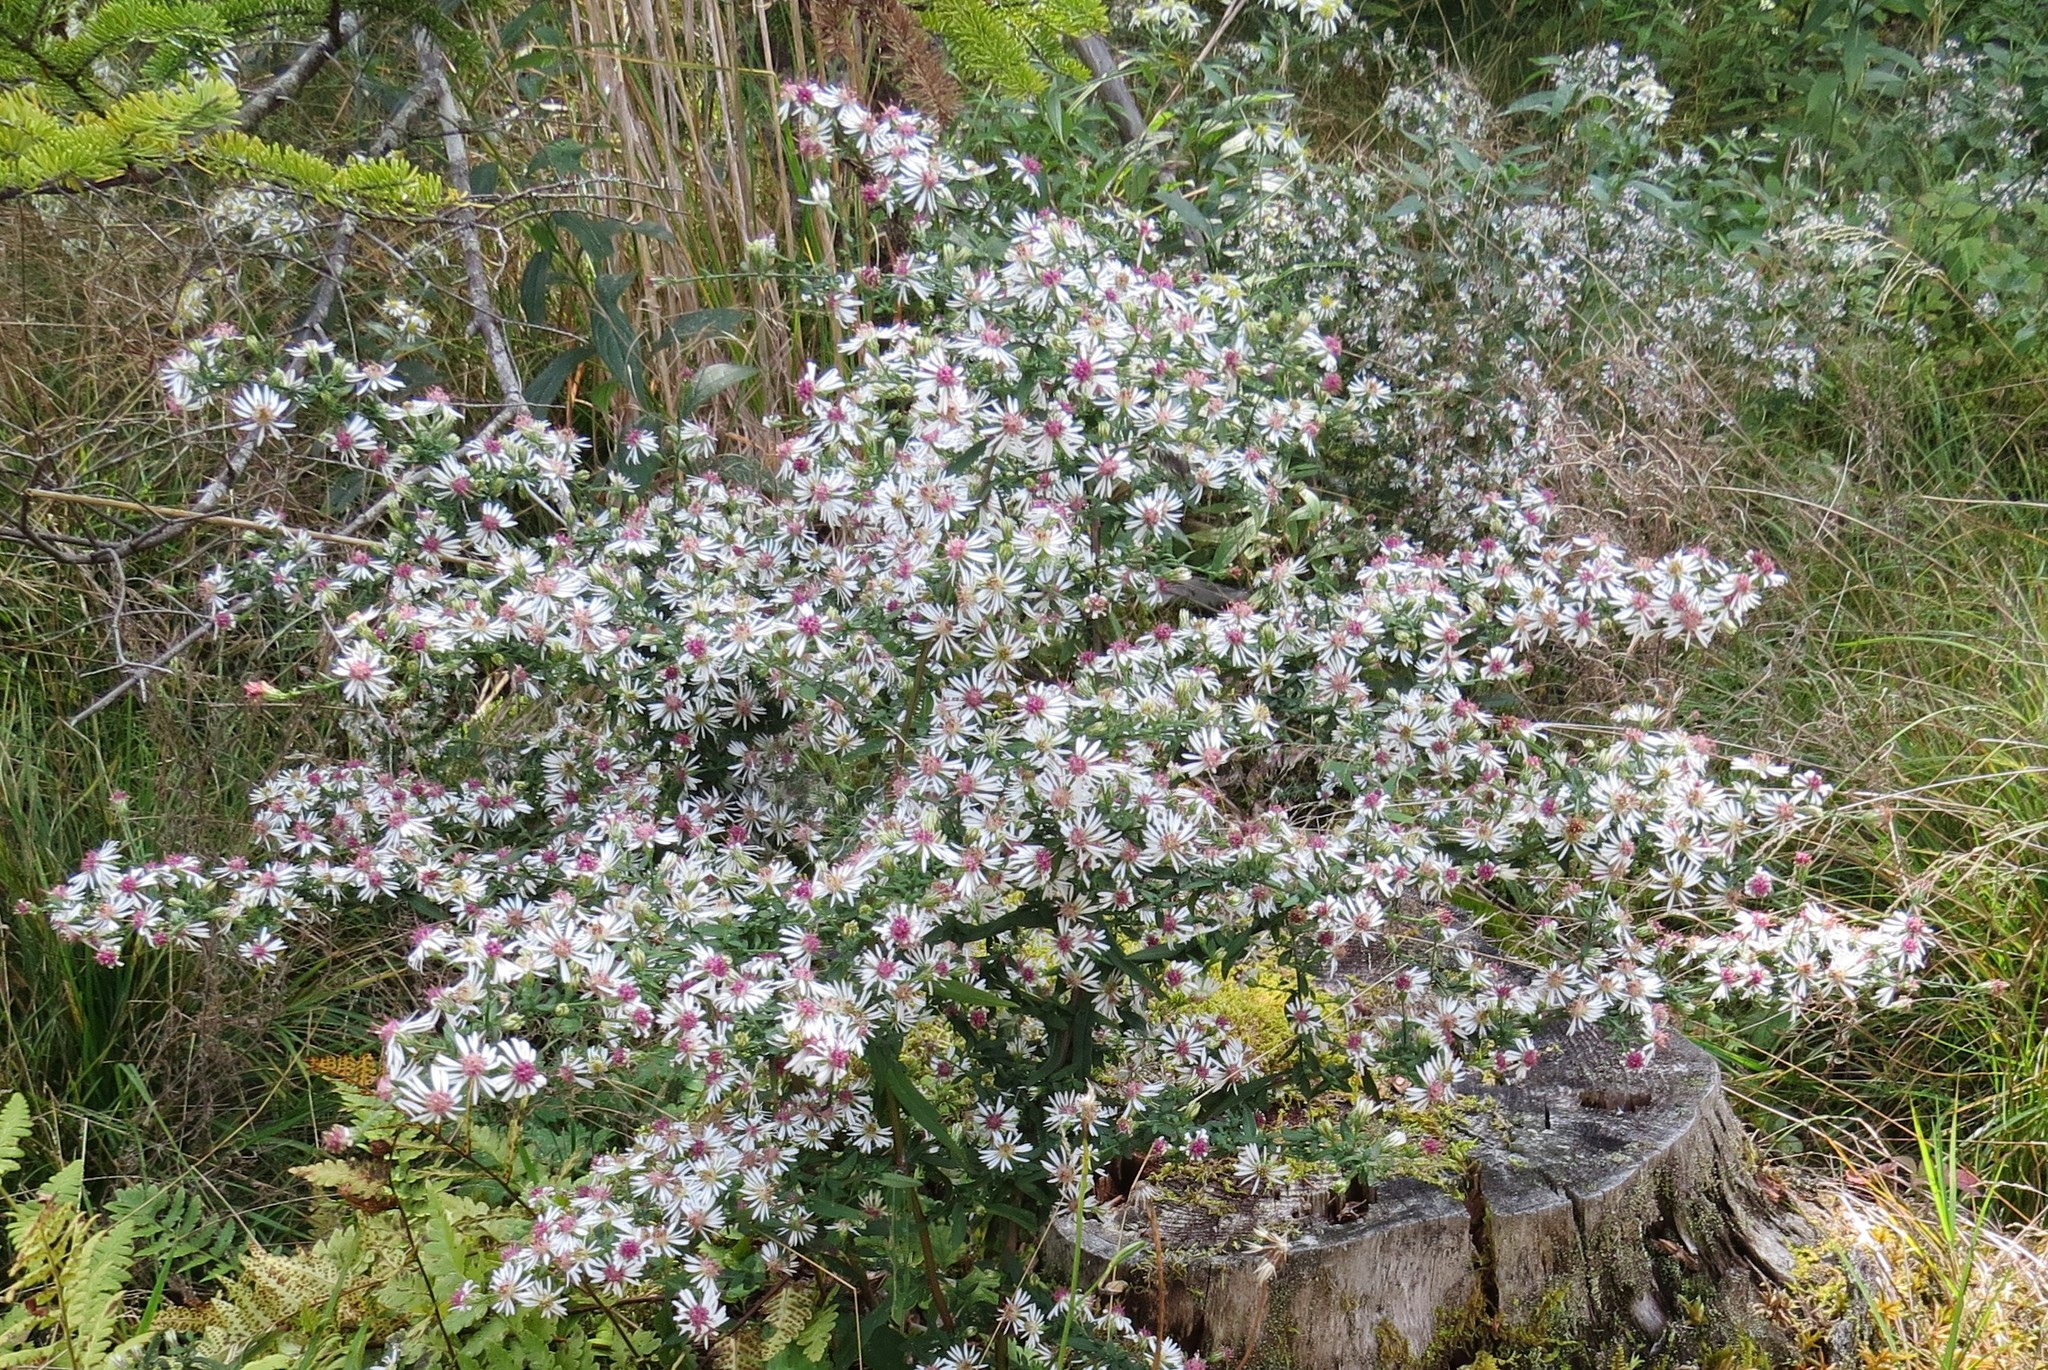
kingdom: Plantae
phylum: Tracheophyta
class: Magnoliopsida
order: Asterales
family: Asteraceae
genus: Symphyotrichum
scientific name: Symphyotrichum novi-belgii
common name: Michaelmas daisy
